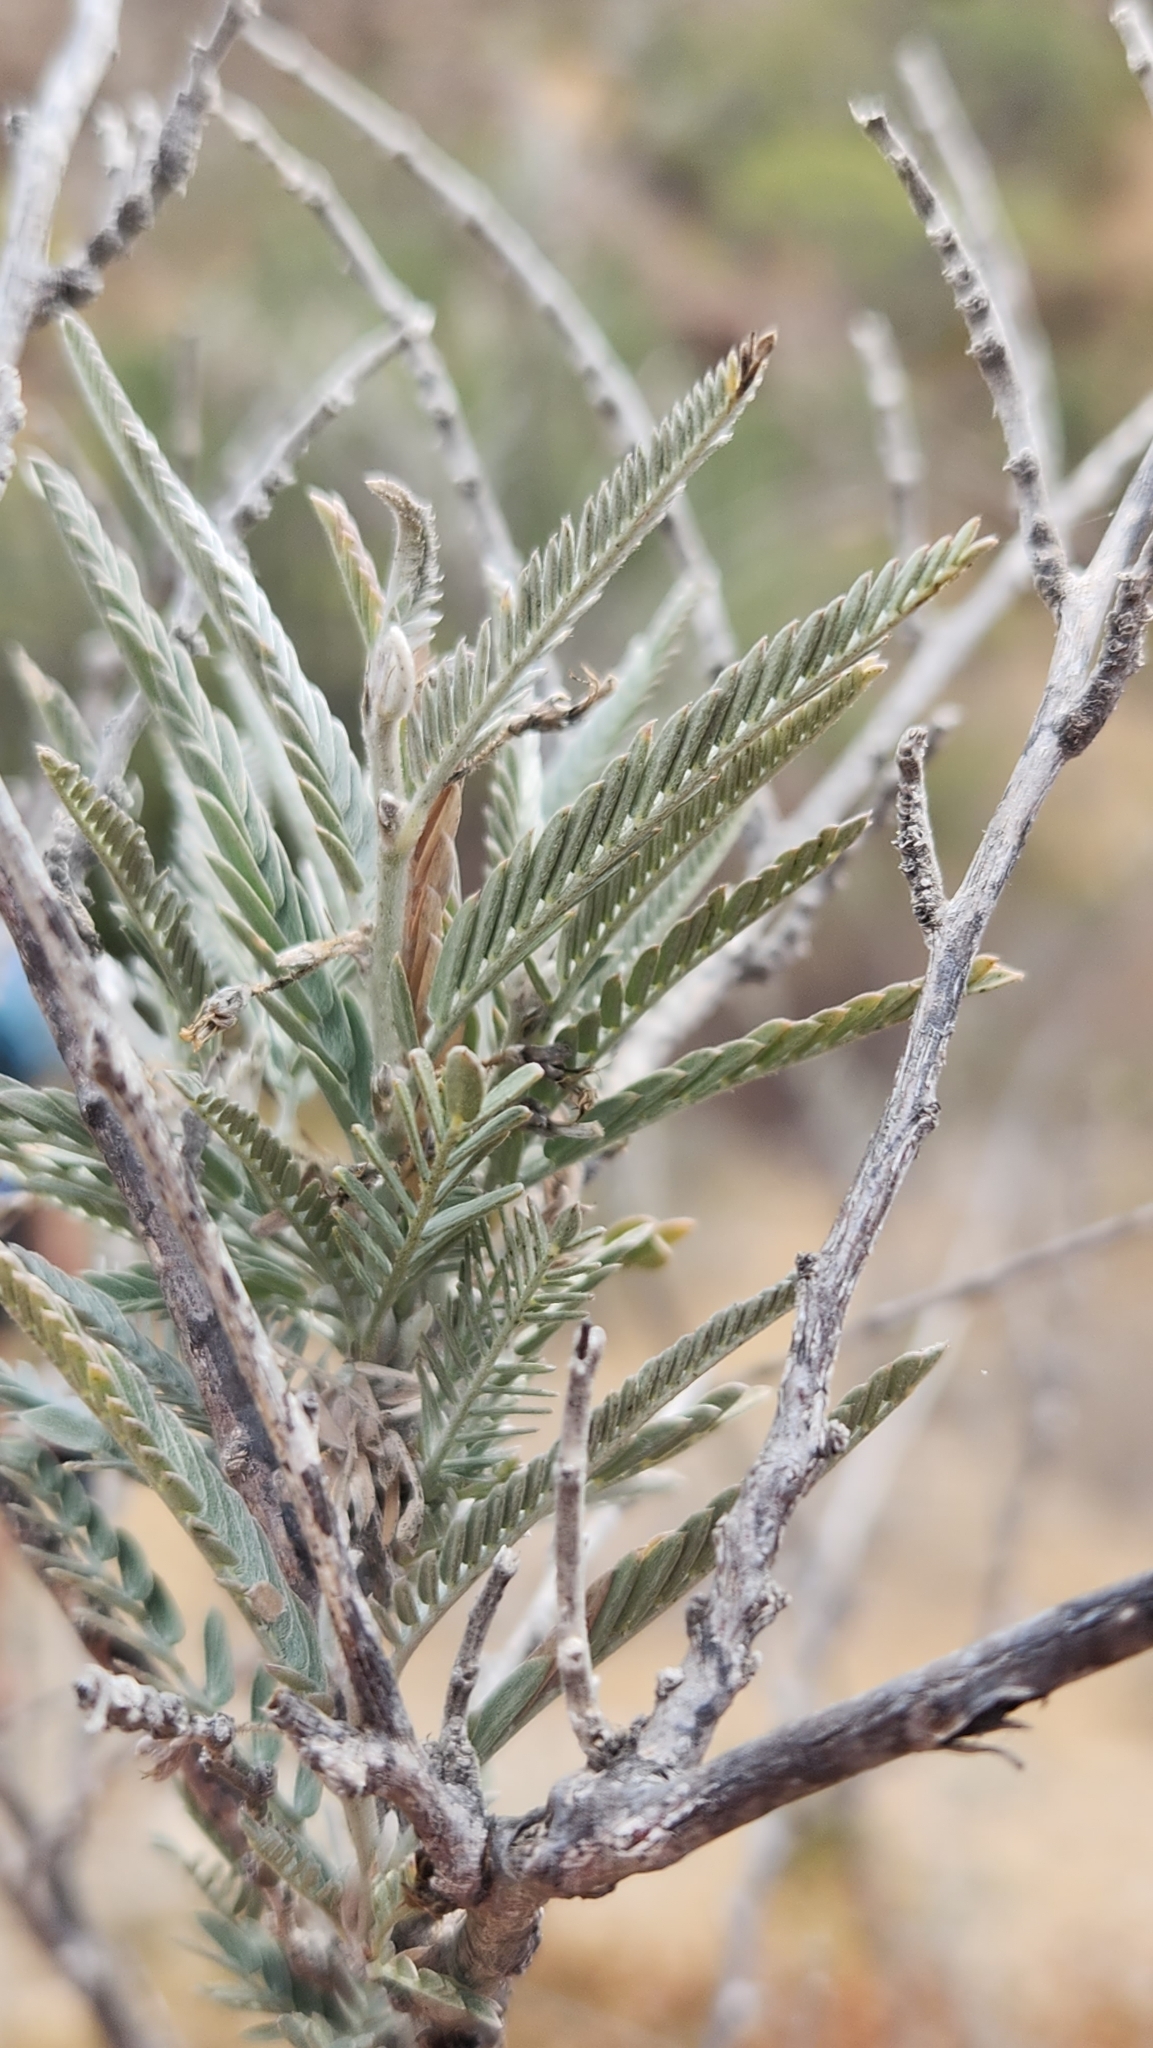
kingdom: Plantae
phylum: Tracheophyta
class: Magnoliopsida
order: Fabales
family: Fabaceae
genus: Ctenodon
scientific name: Ctenodon niveus
